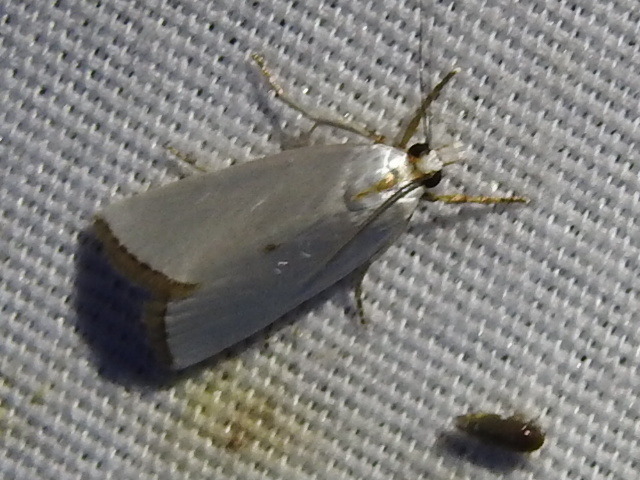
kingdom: Animalia
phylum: Arthropoda
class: Insecta
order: Lepidoptera
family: Crambidae
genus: Argyria
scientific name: Argyria nivalis
